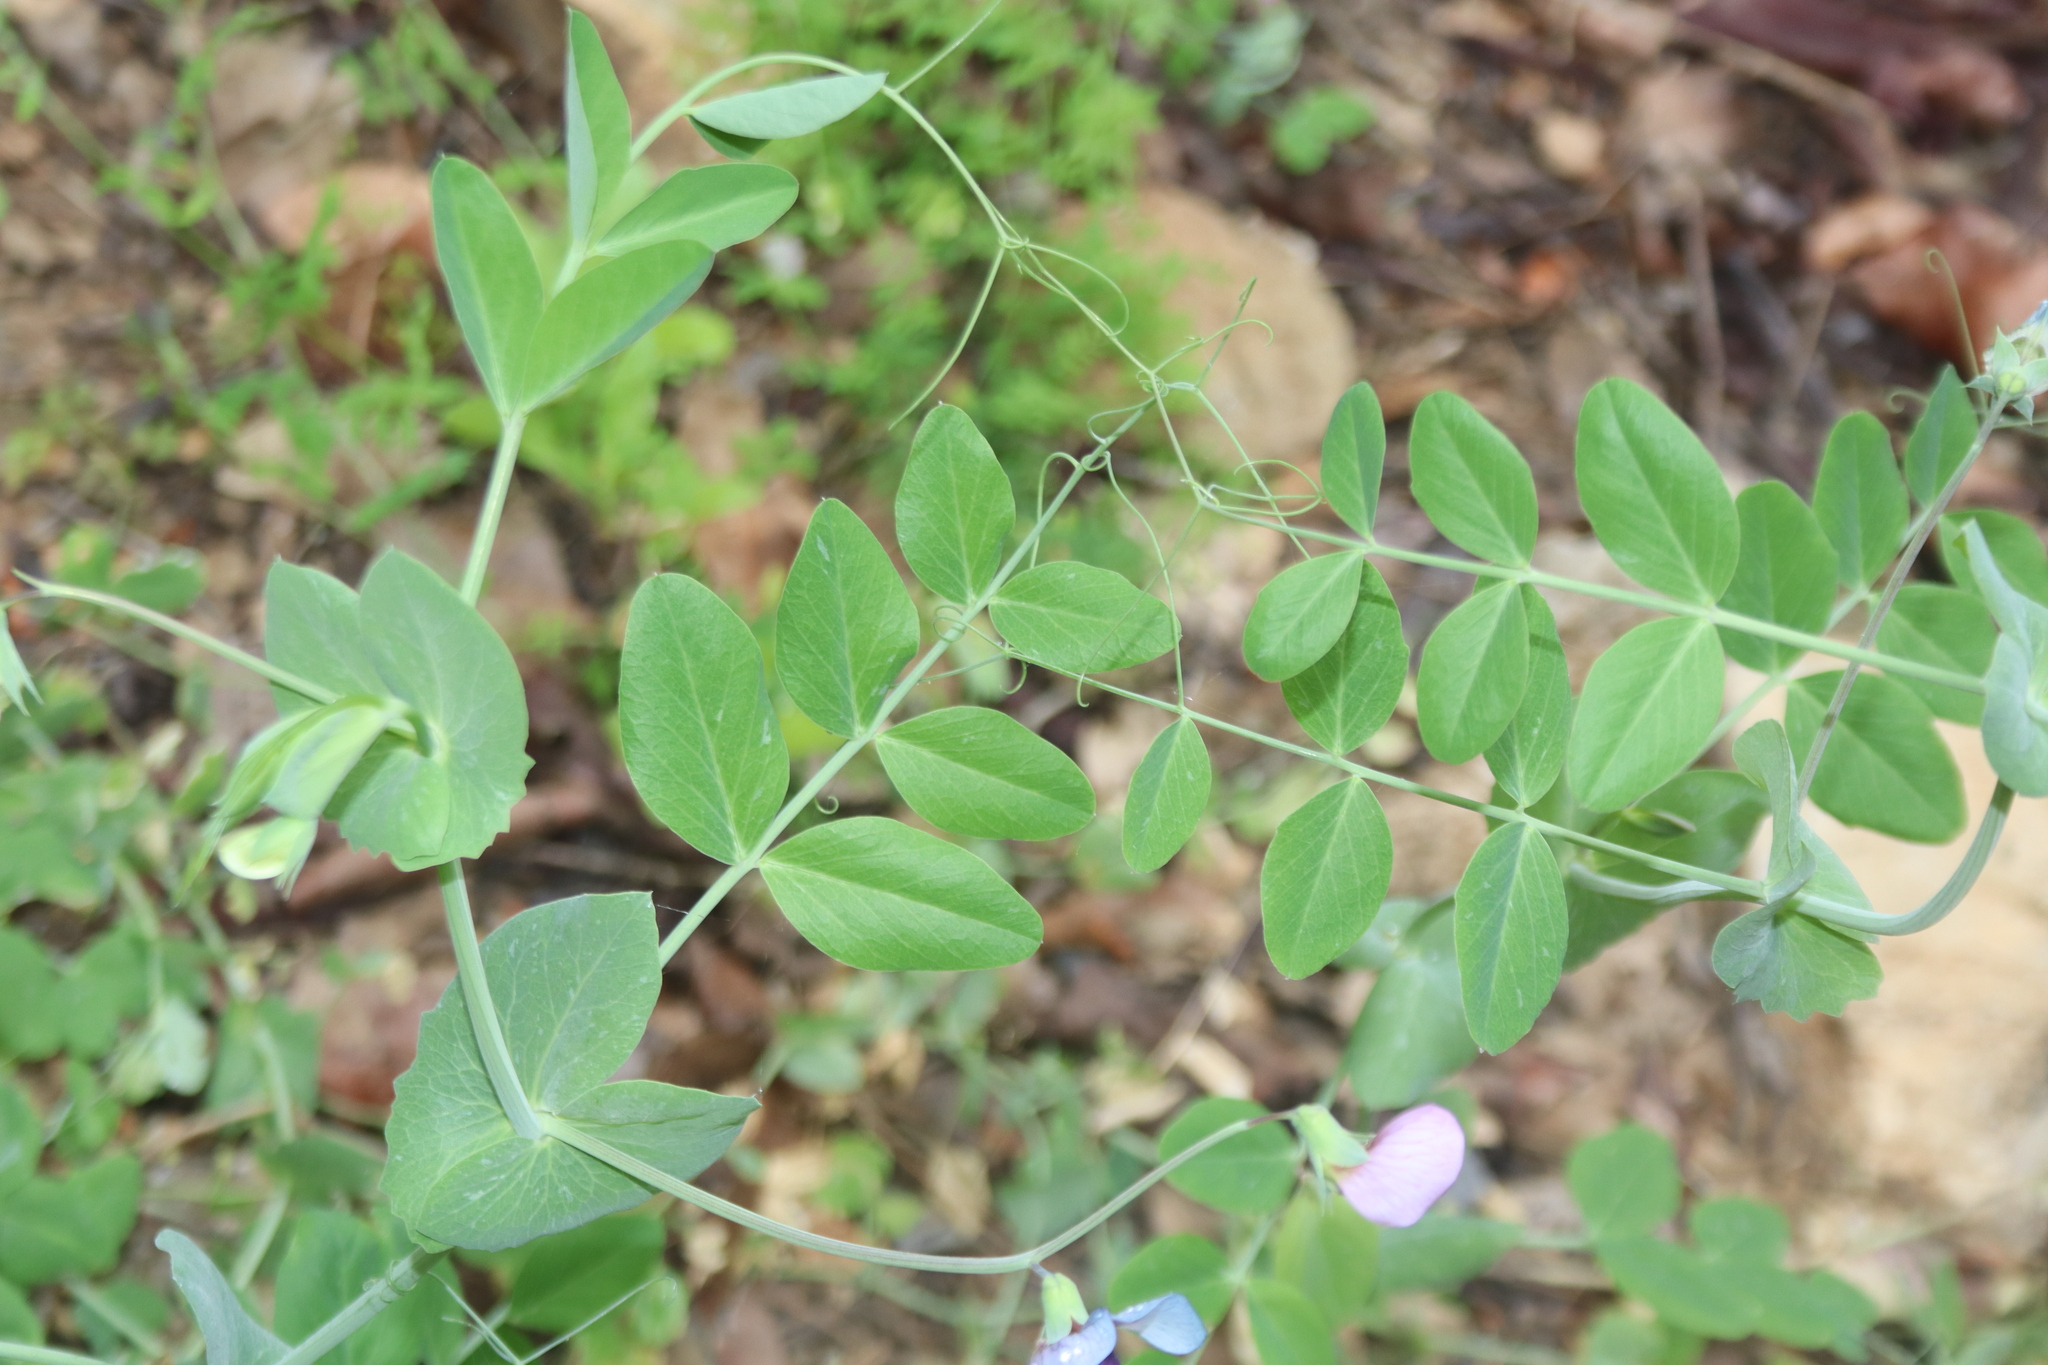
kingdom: Plantae
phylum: Tracheophyta
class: Magnoliopsida
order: Fabales
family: Fabaceae
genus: Lathyrus
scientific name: Lathyrus oleraceus
